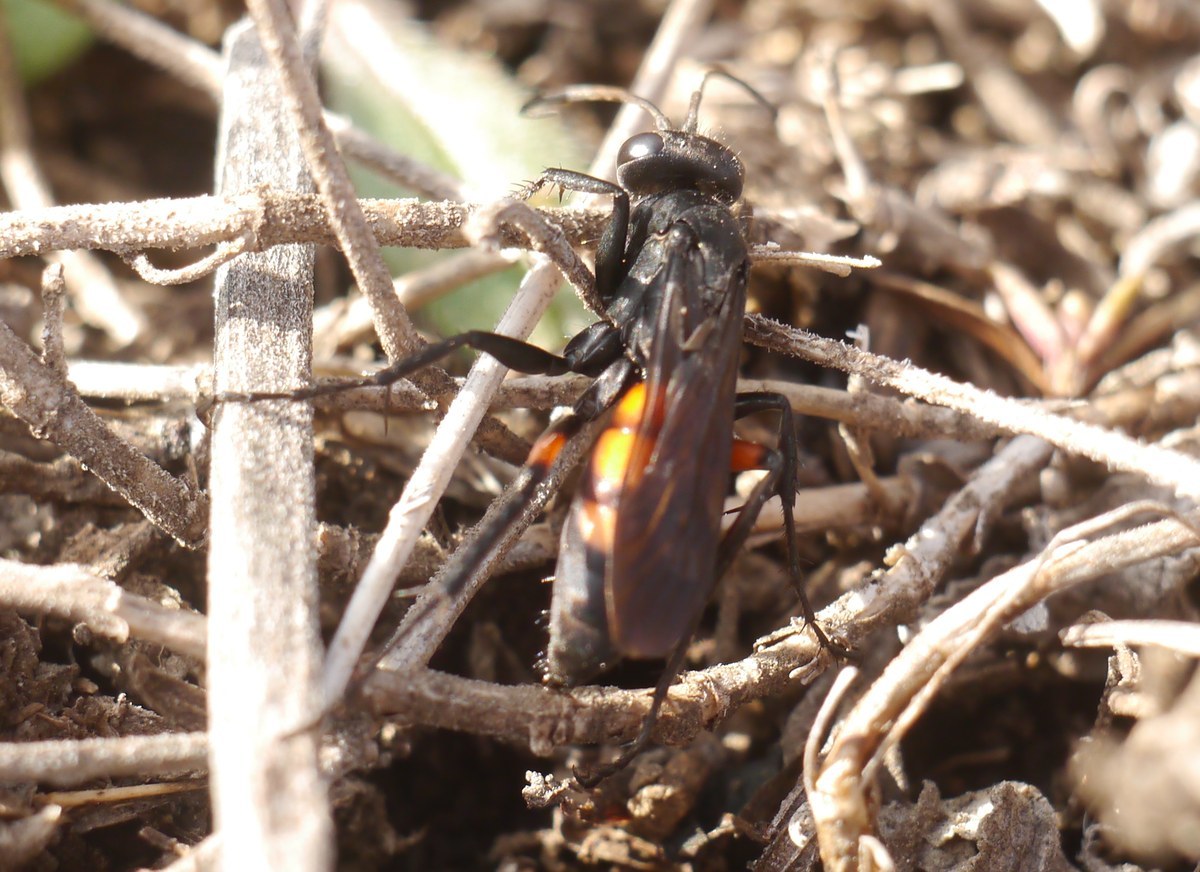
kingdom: Animalia
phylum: Arthropoda
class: Insecta
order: Hymenoptera
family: Pompilidae
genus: Anoplius
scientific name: Anoplius viaticus
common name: Black banded spider wasp
